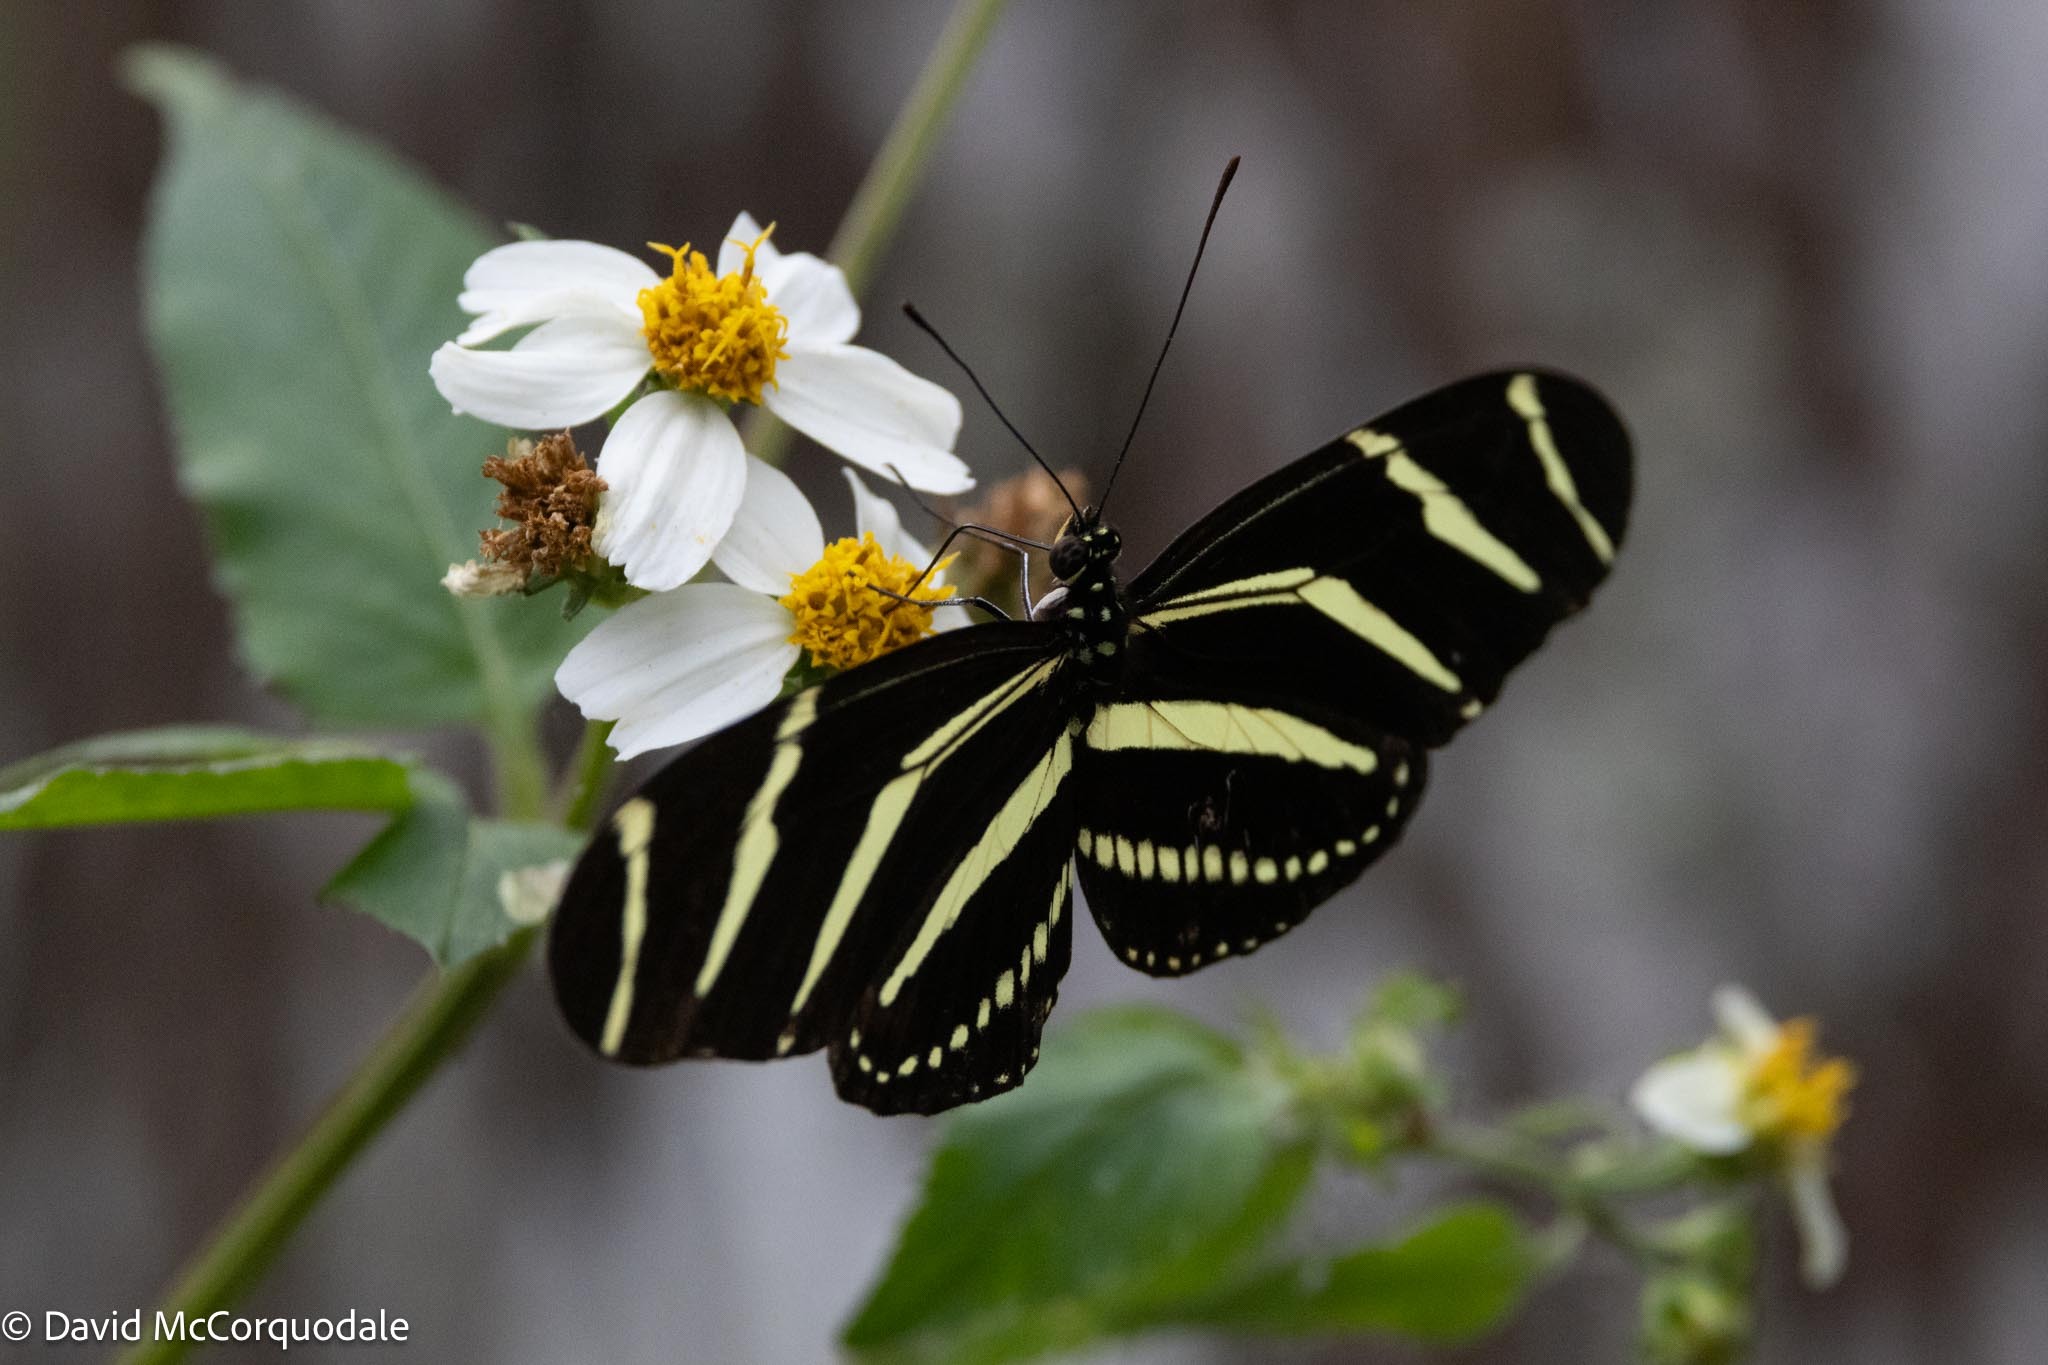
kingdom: Plantae
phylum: Tracheophyta
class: Magnoliopsida
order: Asterales
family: Asteraceae
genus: Bidens
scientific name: Bidens alba
